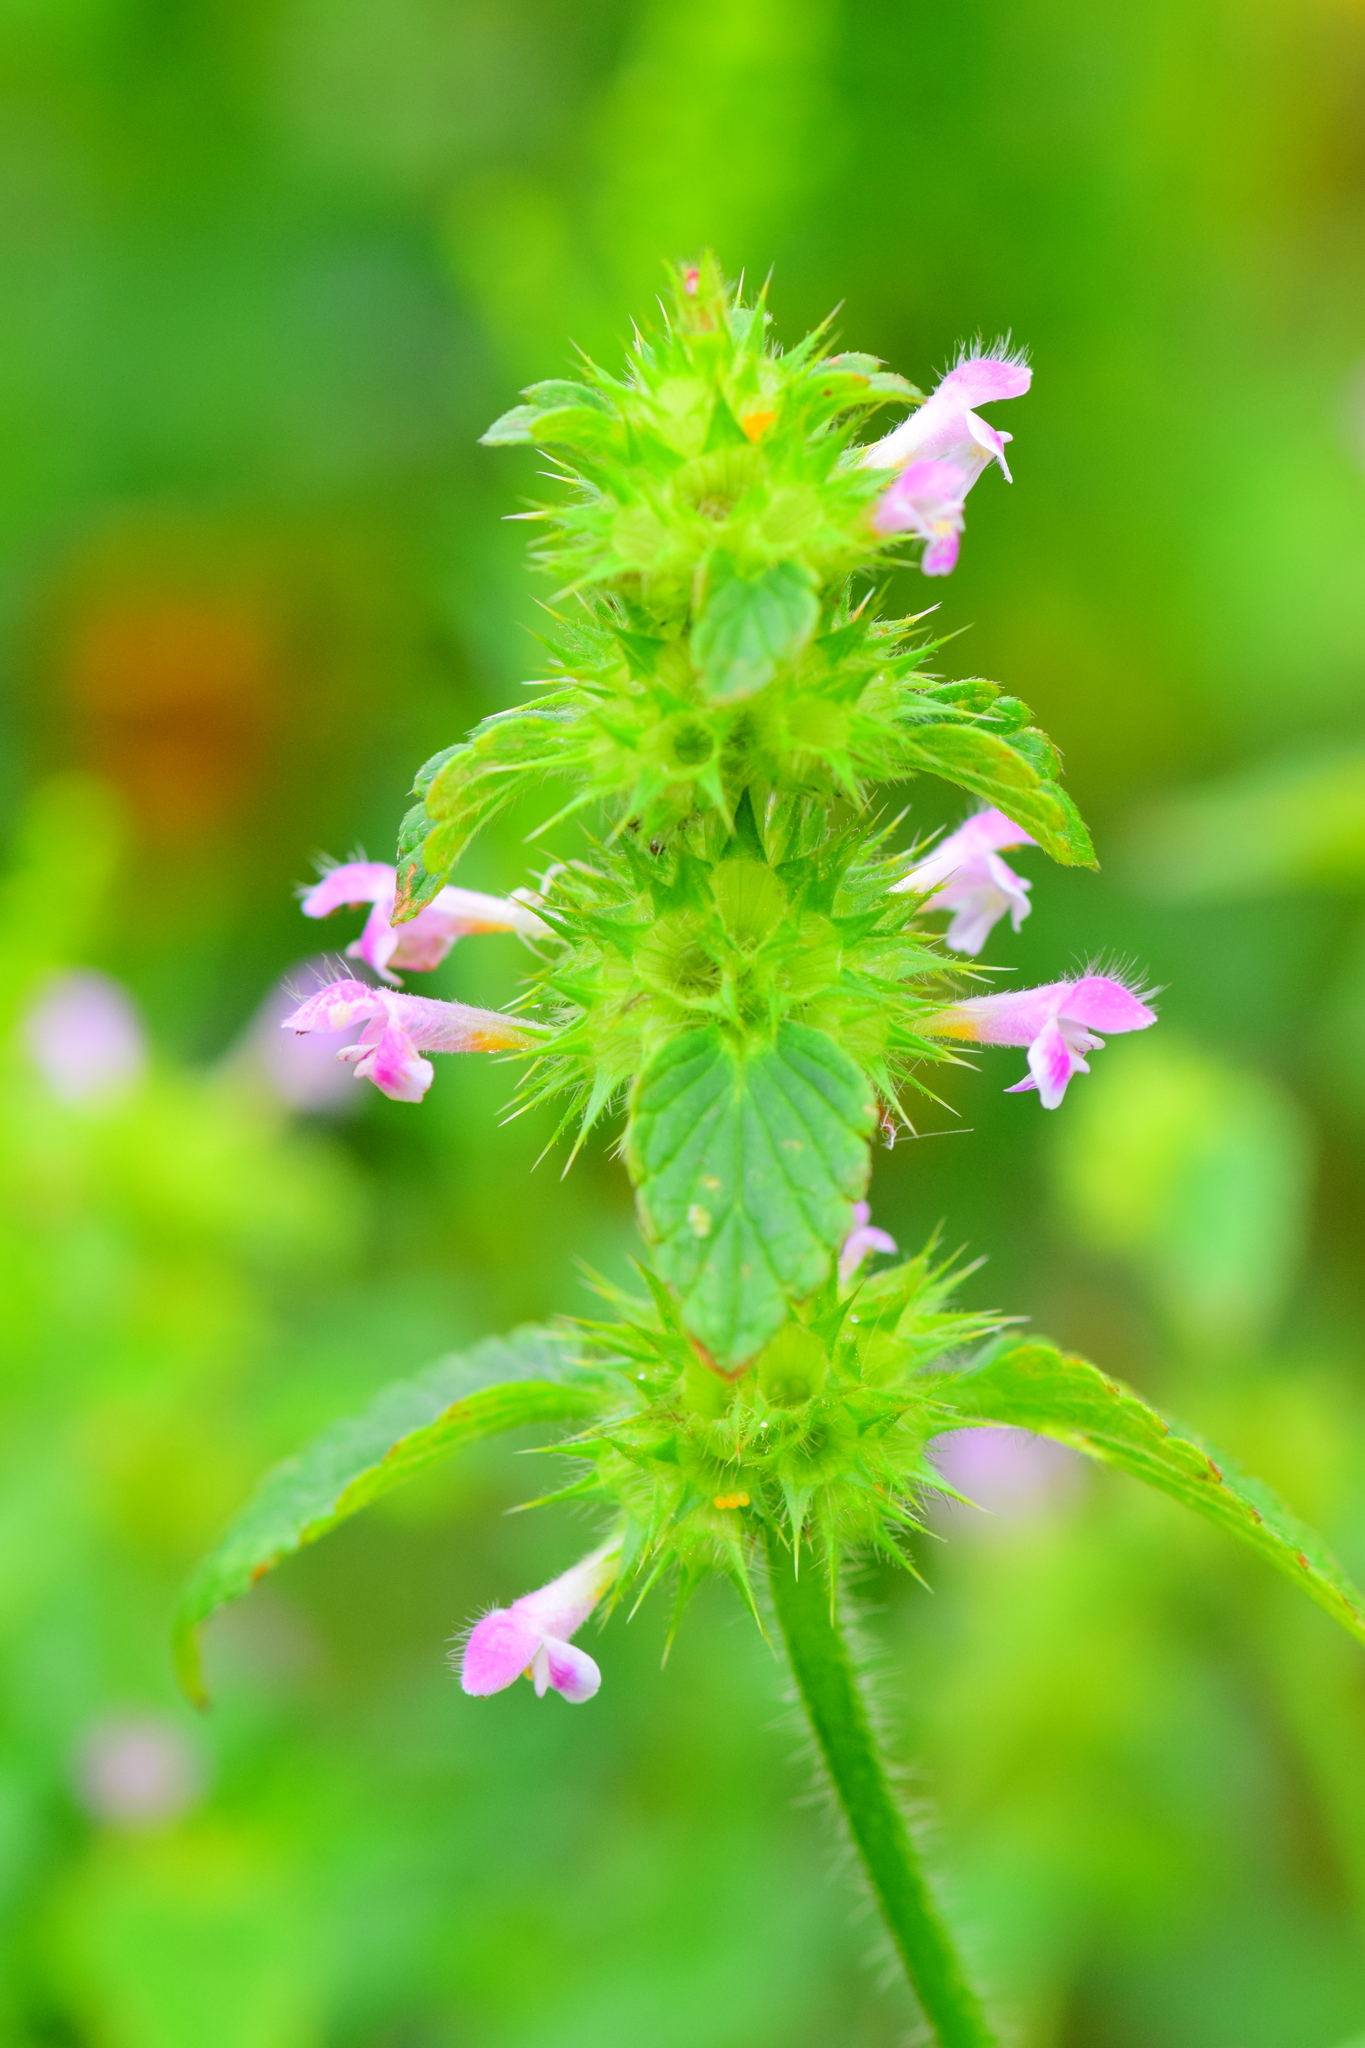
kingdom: Plantae
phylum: Tracheophyta
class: Magnoliopsida
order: Lamiales
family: Lamiaceae
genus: Galeopsis
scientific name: Galeopsis bifida
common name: Bifid hemp-nettle
